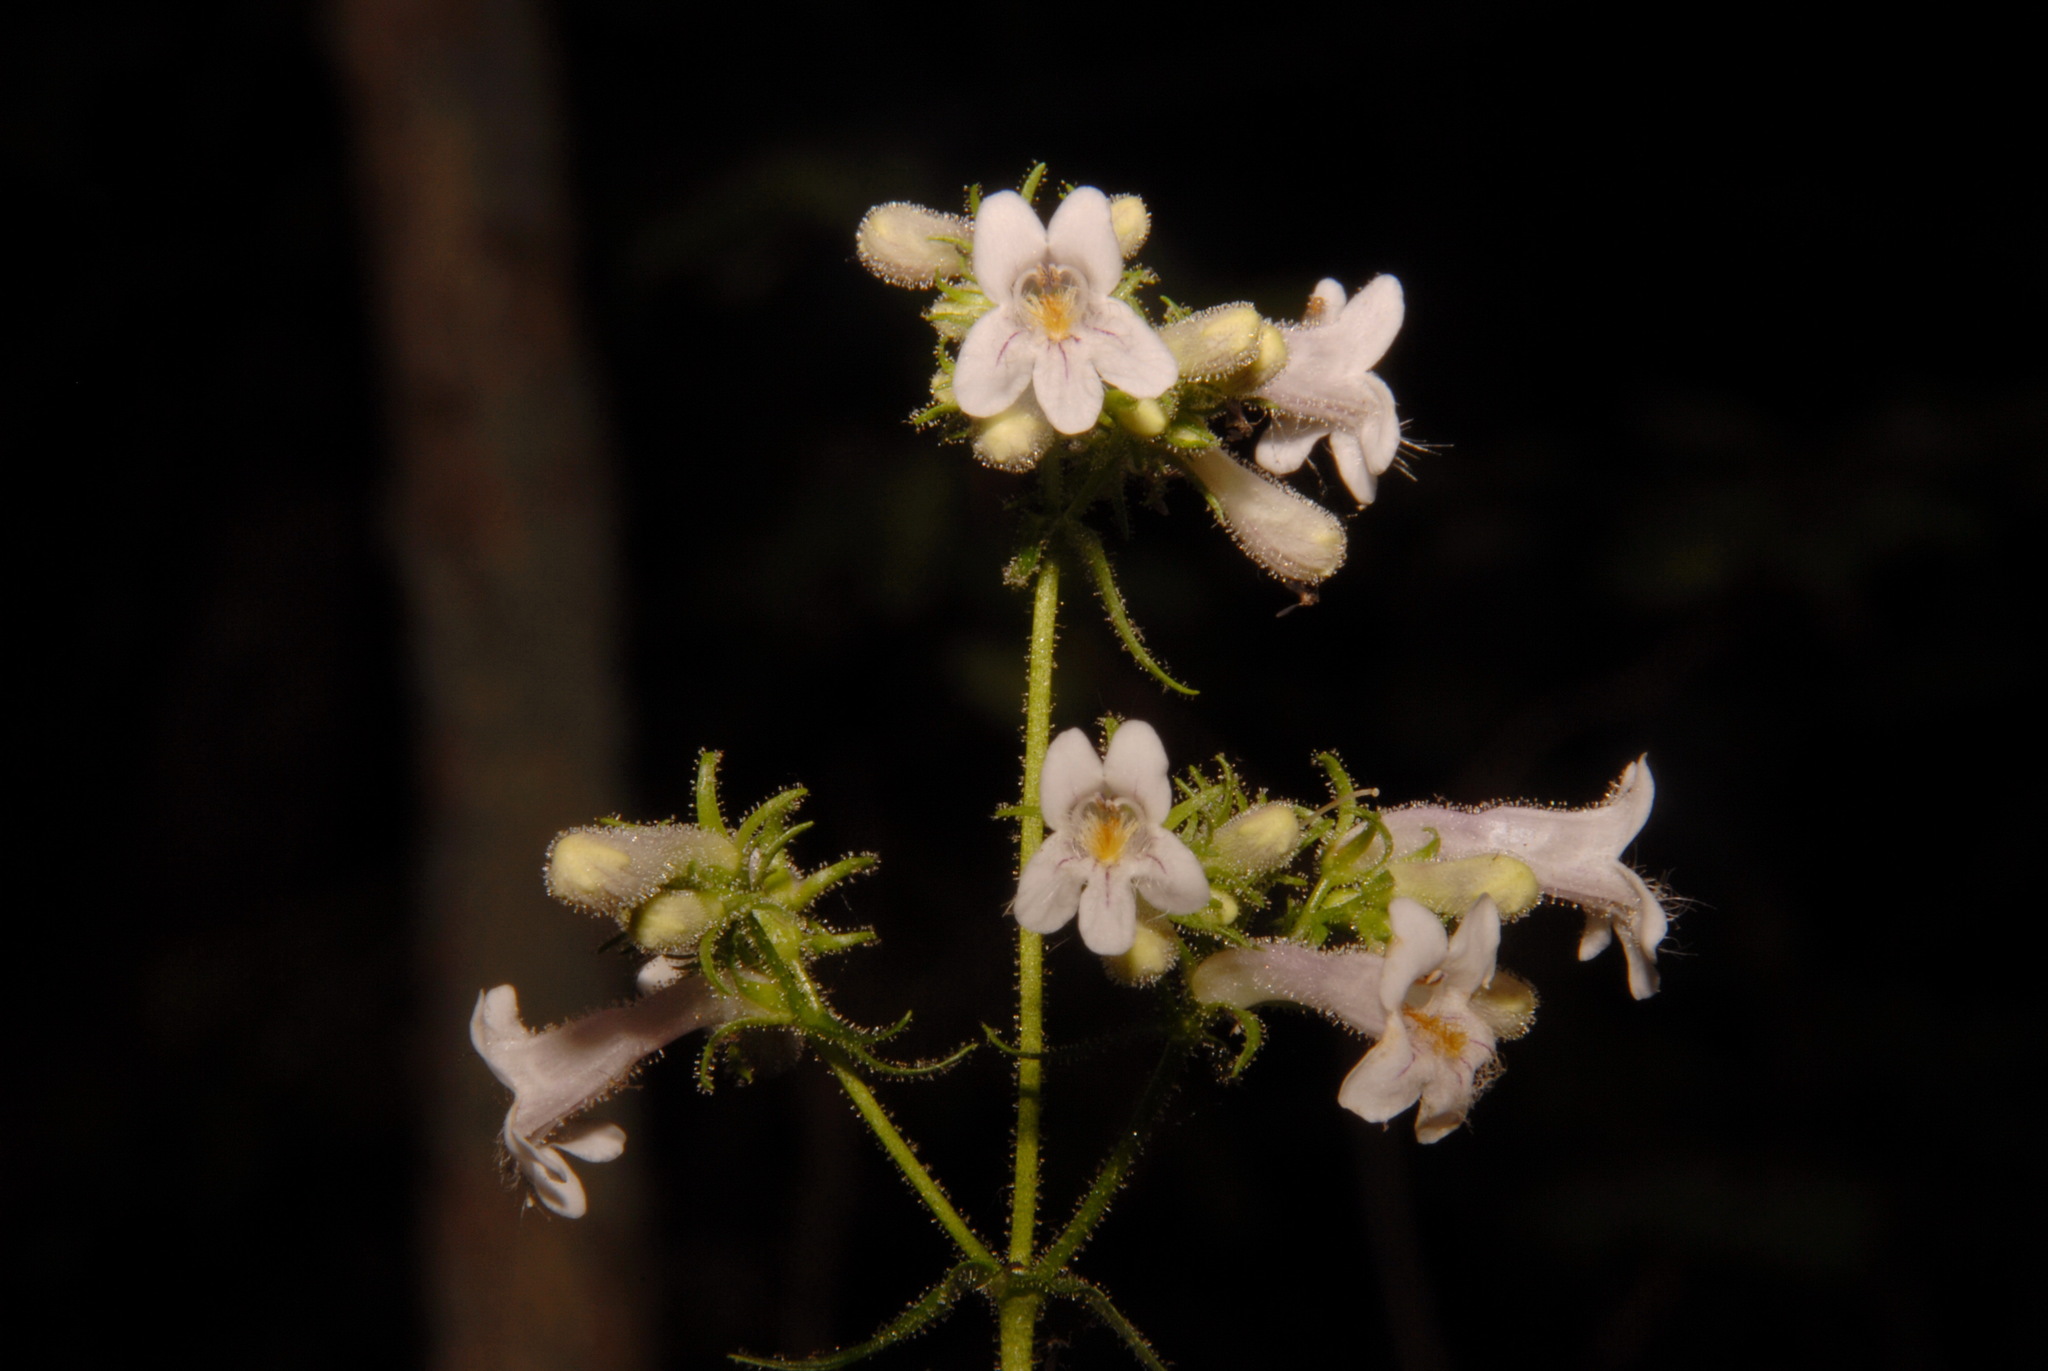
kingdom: Plantae
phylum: Tracheophyta
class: Magnoliopsida
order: Lamiales
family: Plantaginaceae
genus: Penstemon
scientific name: Penstemon kralii
